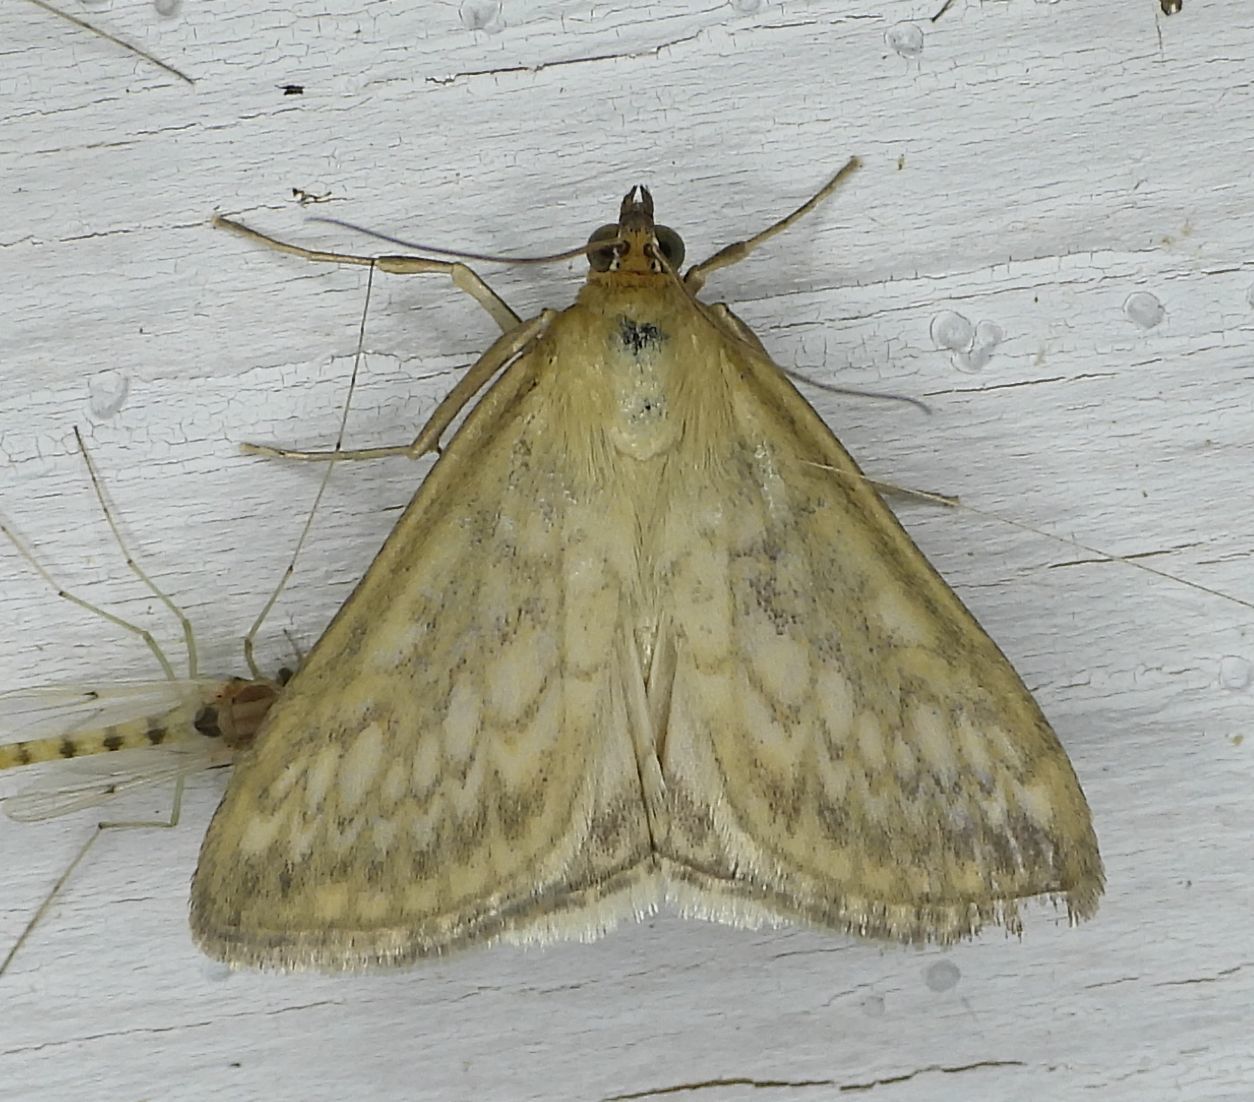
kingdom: Animalia
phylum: Arthropoda
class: Insecta
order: Lepidoptera
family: Crambidae
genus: Sitochroa
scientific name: Sitochroa chortalis
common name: Dimorphic sitochroa moth
